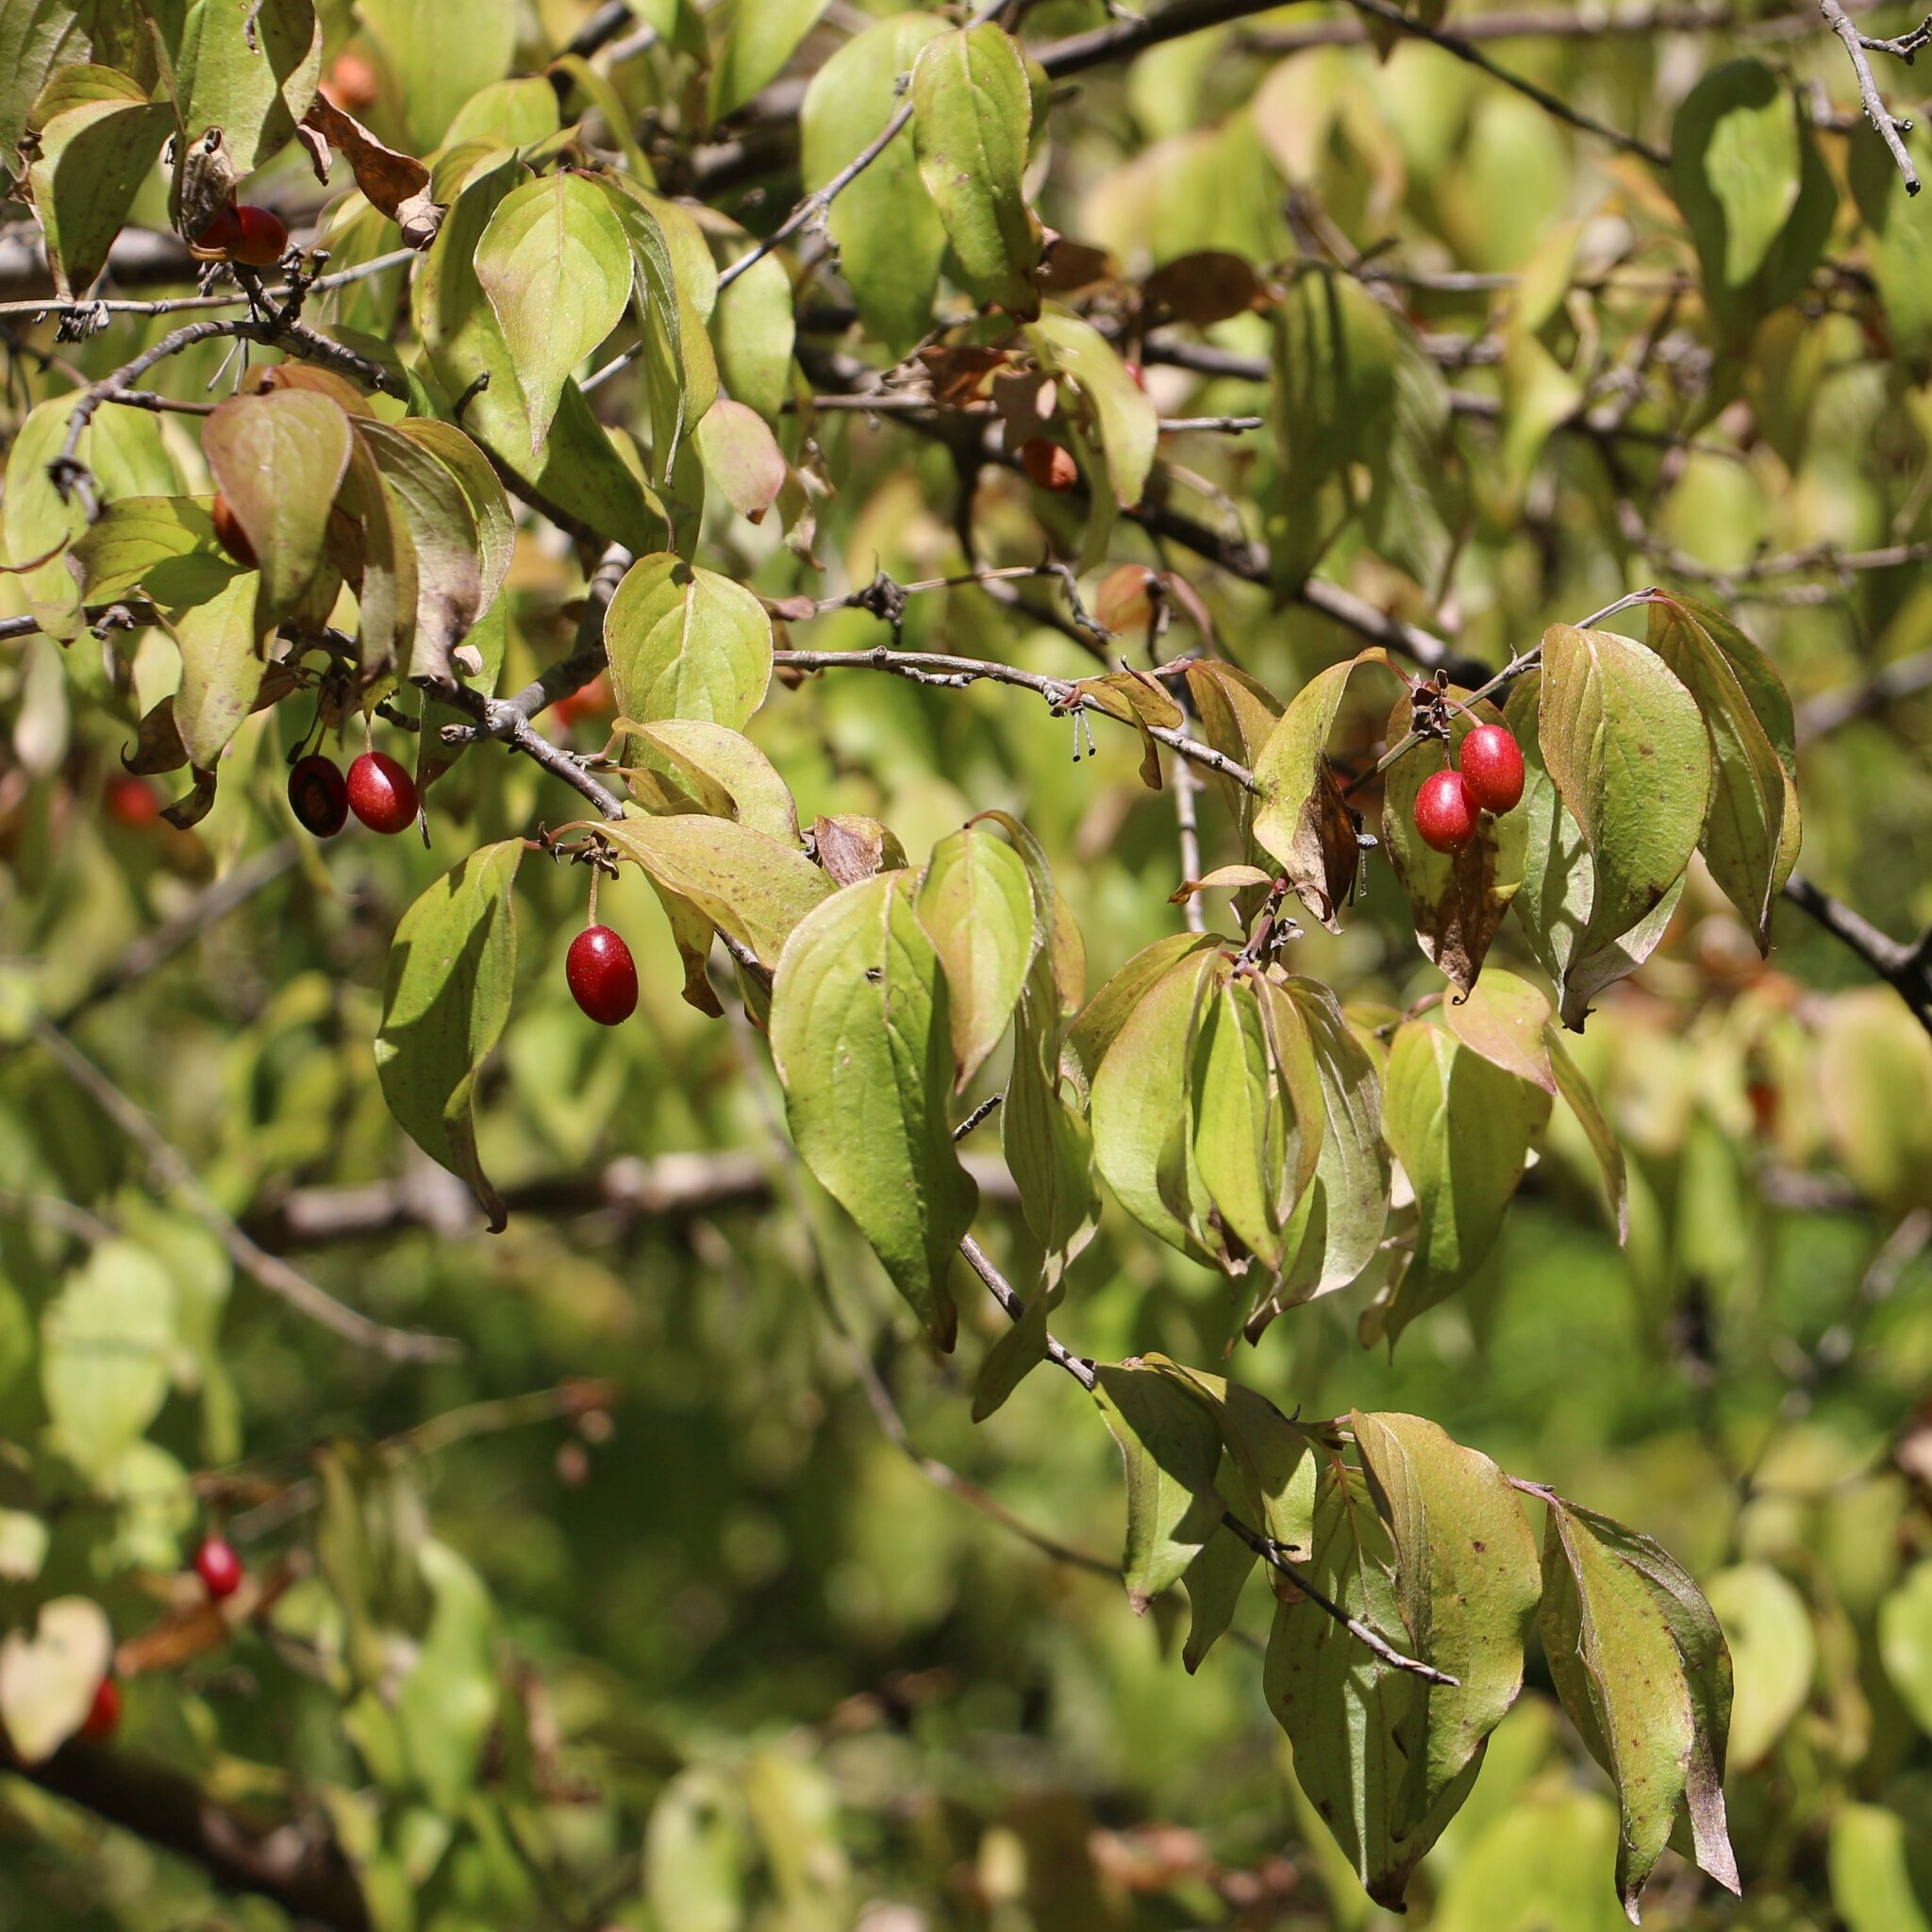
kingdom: Plantae
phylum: Tracheophyta
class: Magnoliopsida
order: Cornales
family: Cornaceae
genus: Cornus
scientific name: Cornus mas
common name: Cornelian-cherry
